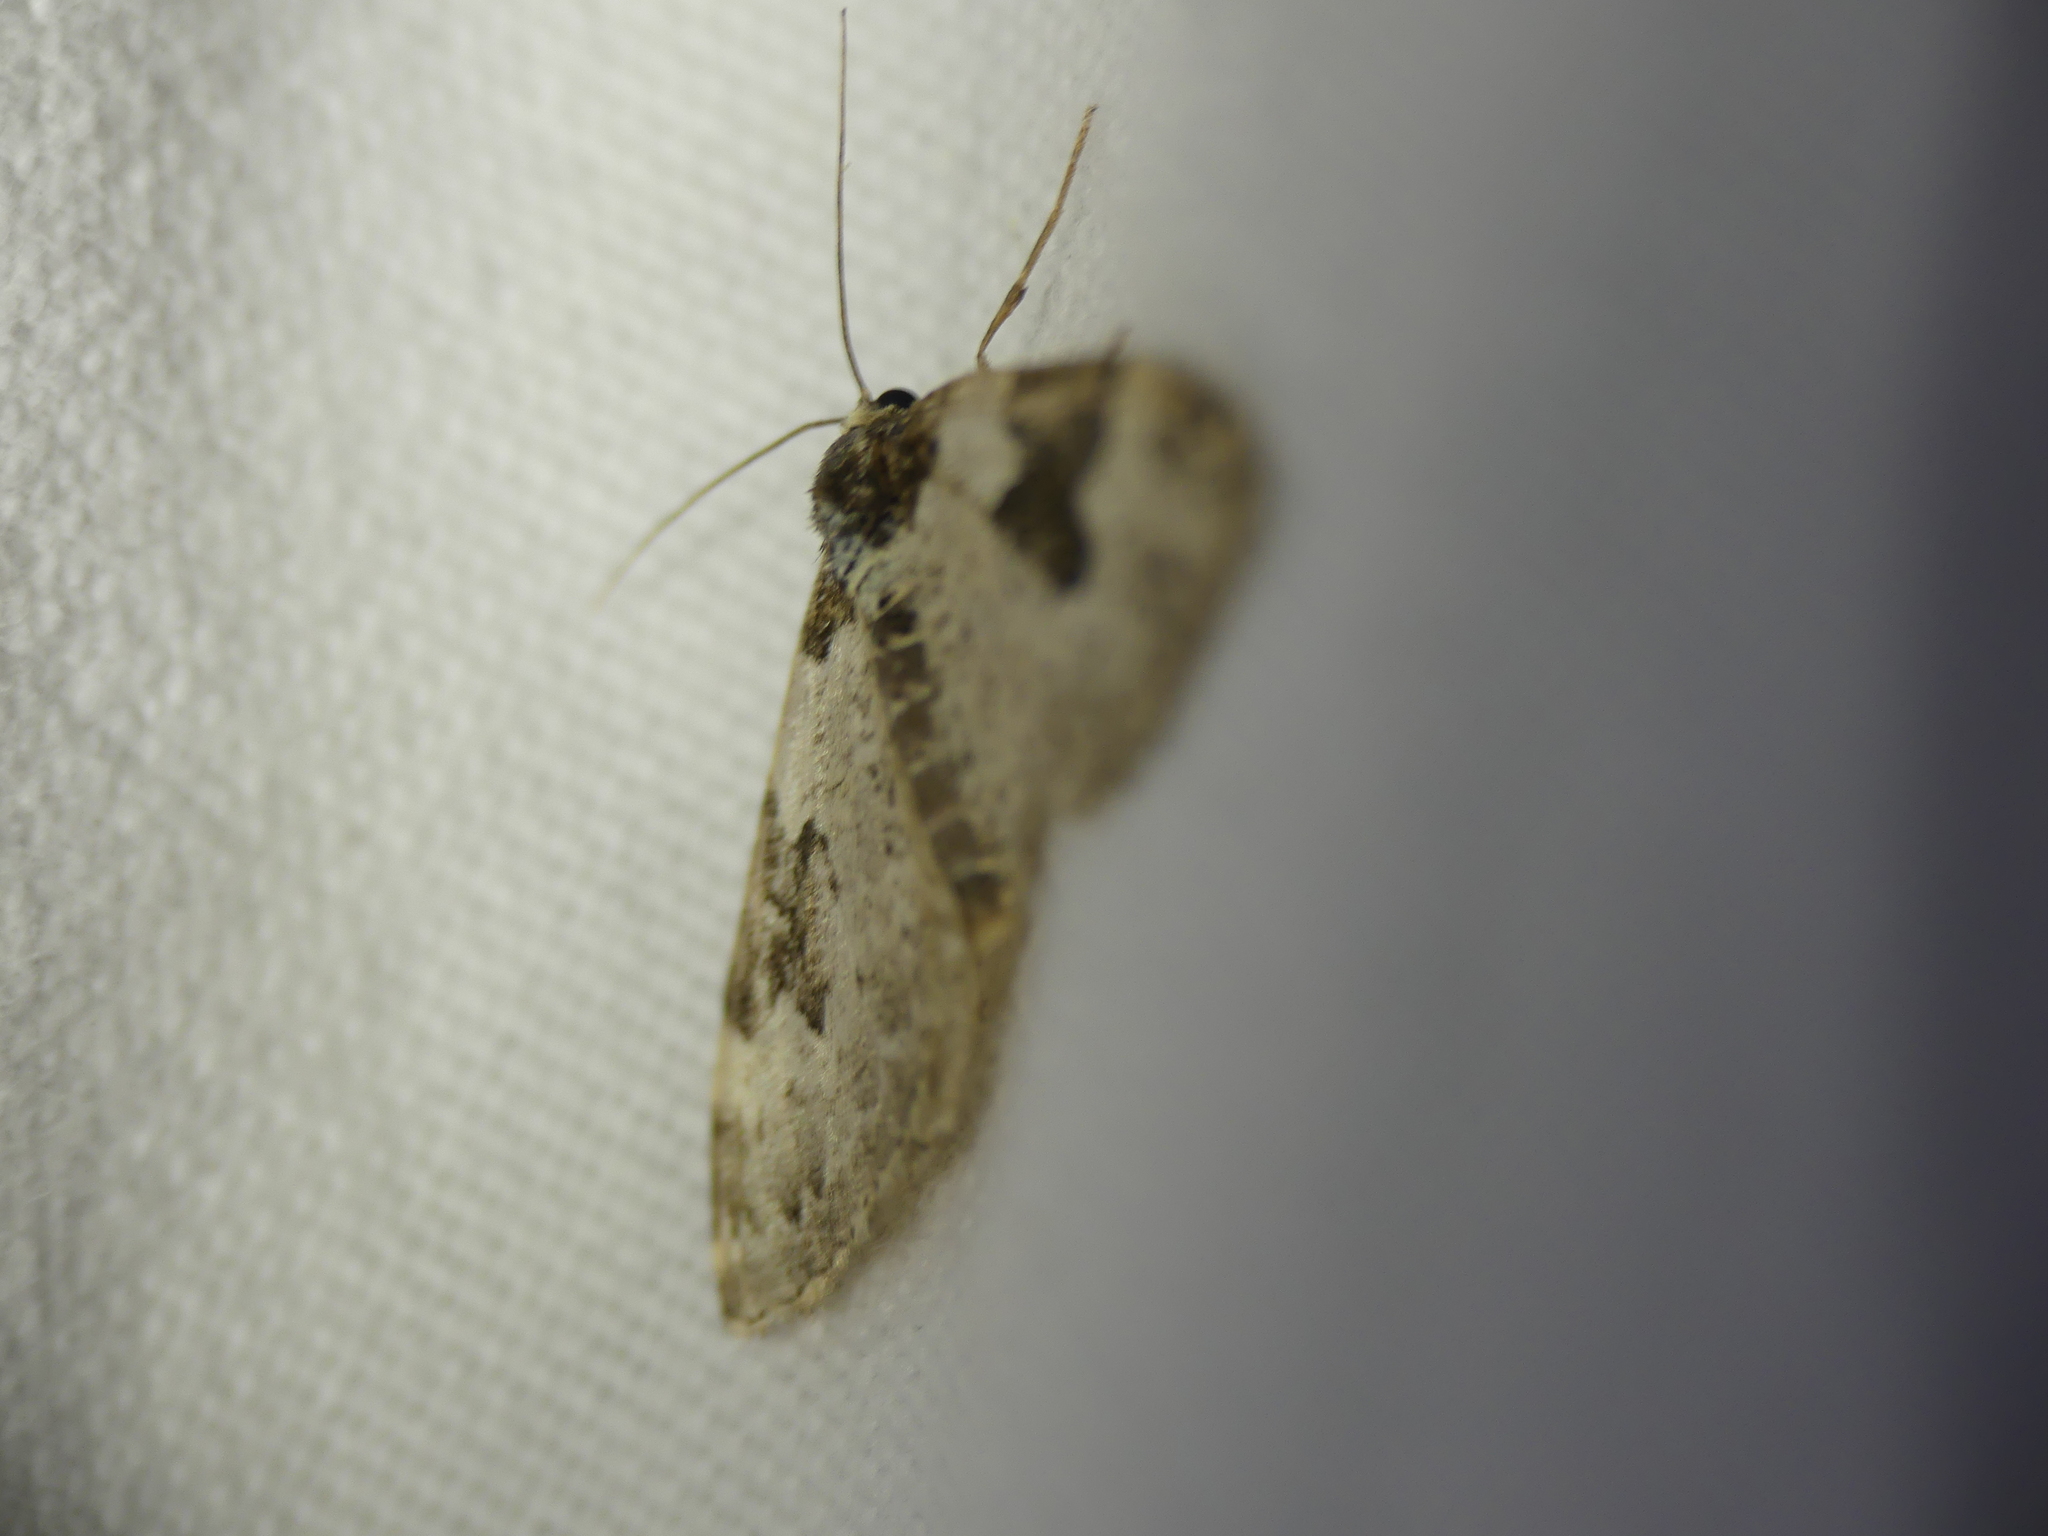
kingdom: Animalia
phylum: Arthropoda
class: Insecta
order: Lepidoptera
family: Geometridae
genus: Xanthorhoe
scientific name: Xanthorhoe fluctuata
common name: Garden carpet
